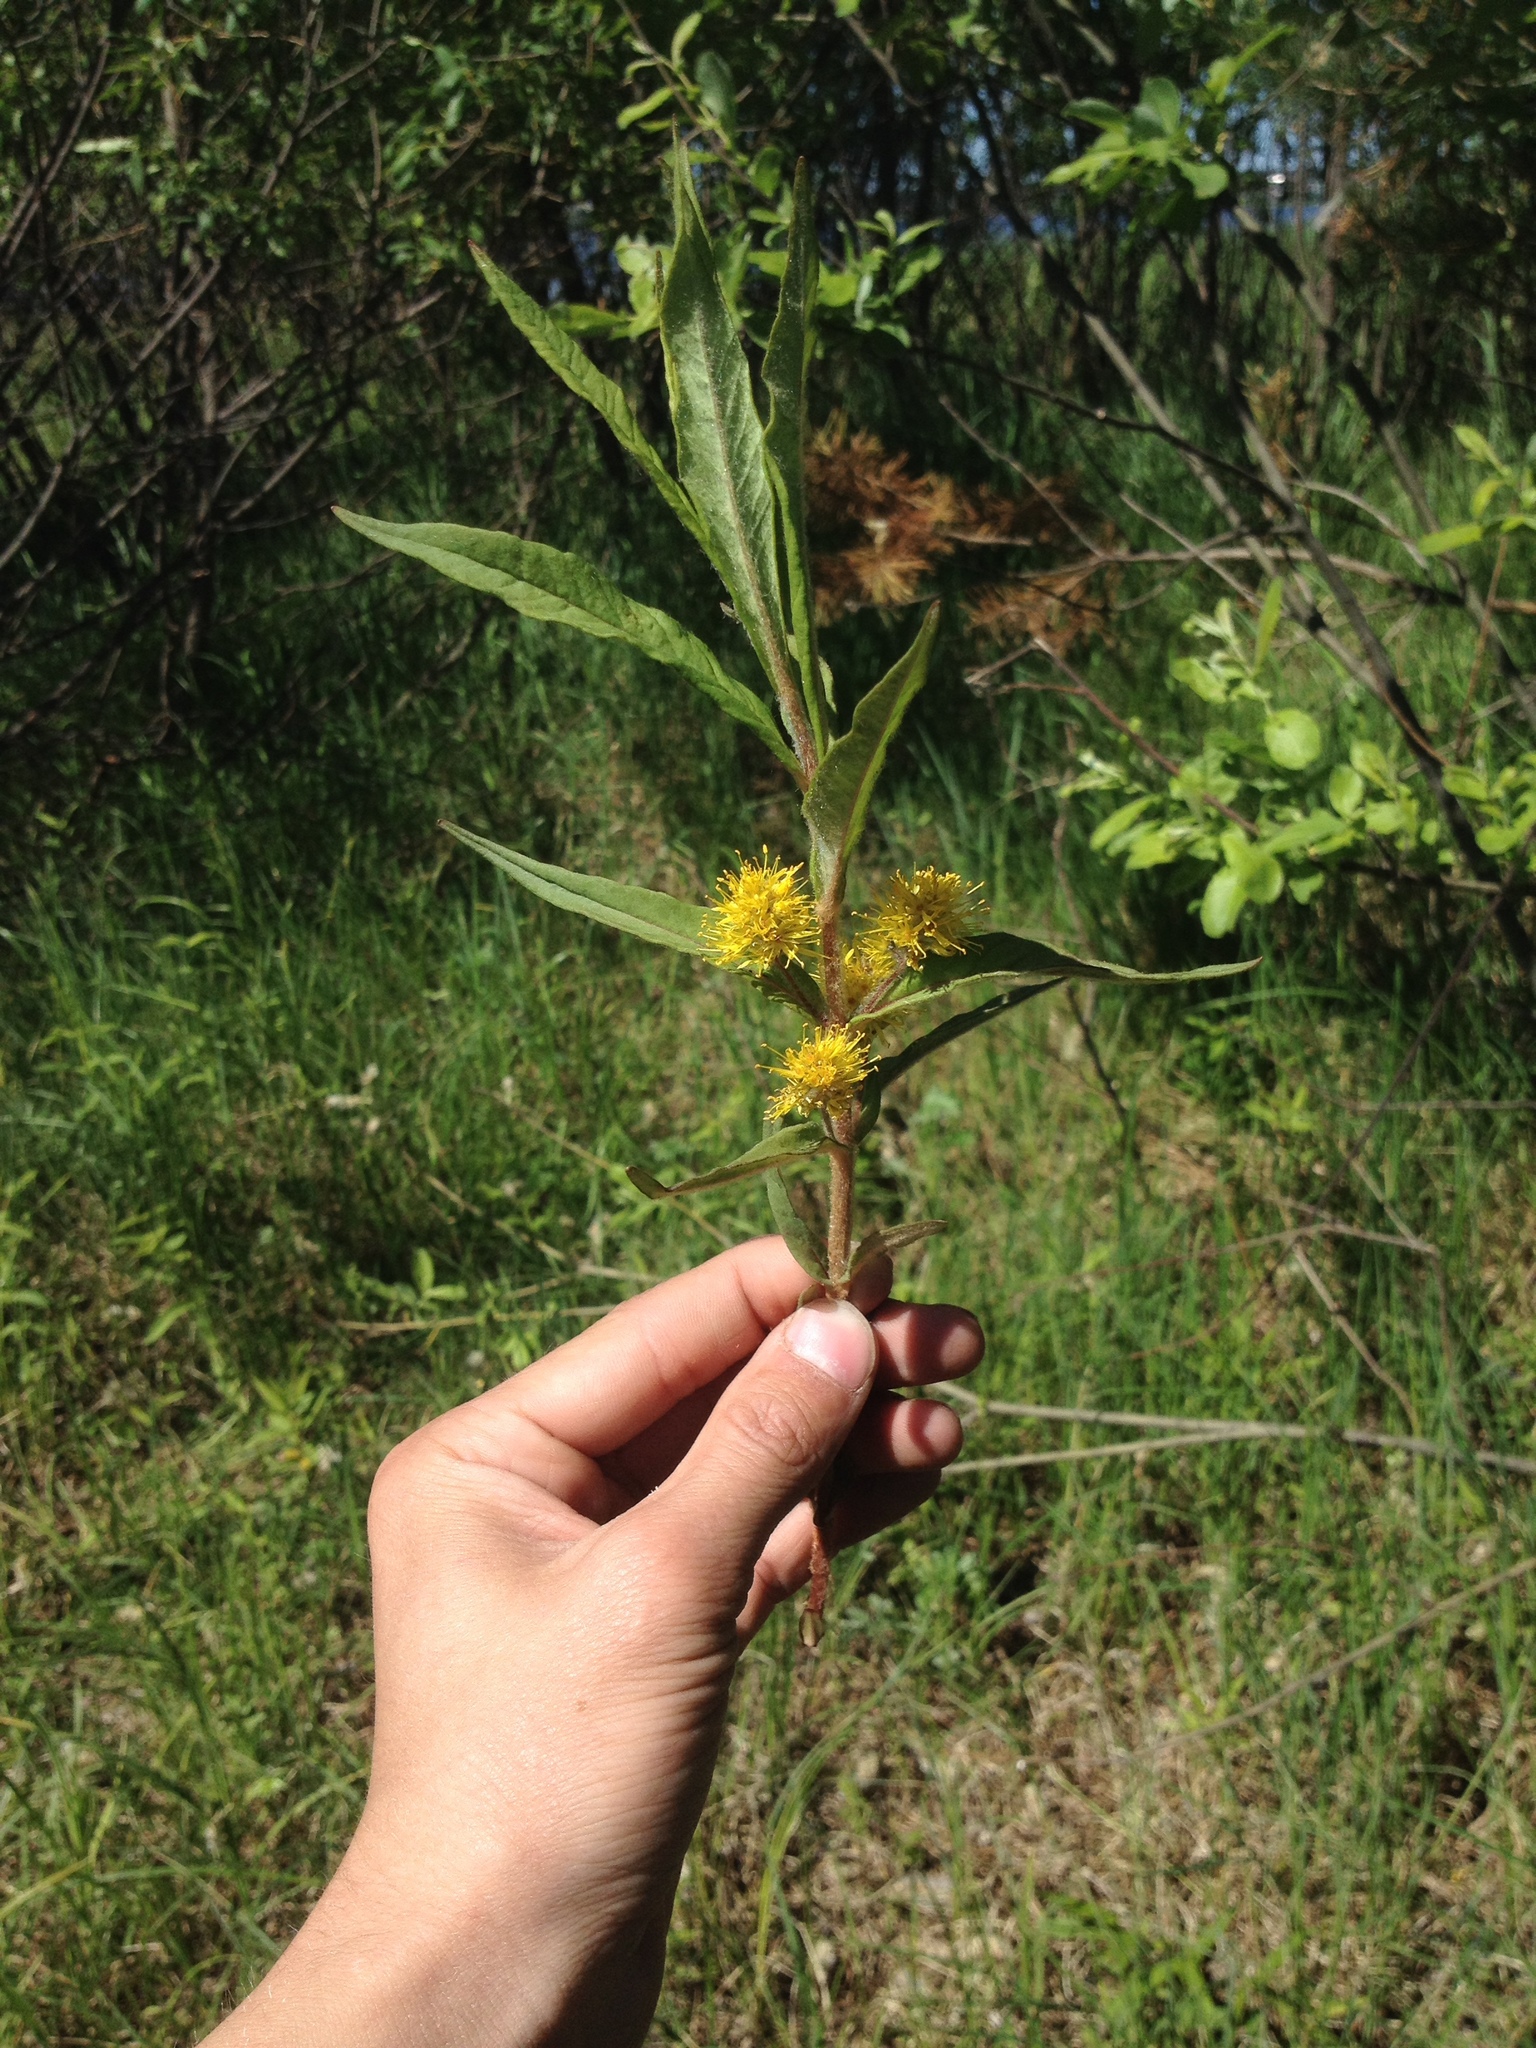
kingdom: Plantae
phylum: Tracheophyta
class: Magnoliopsida
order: Ericales
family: Primulaceae
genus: Lysimachia
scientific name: Lysimachia thyrsiflora
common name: Tufted loosestrife
